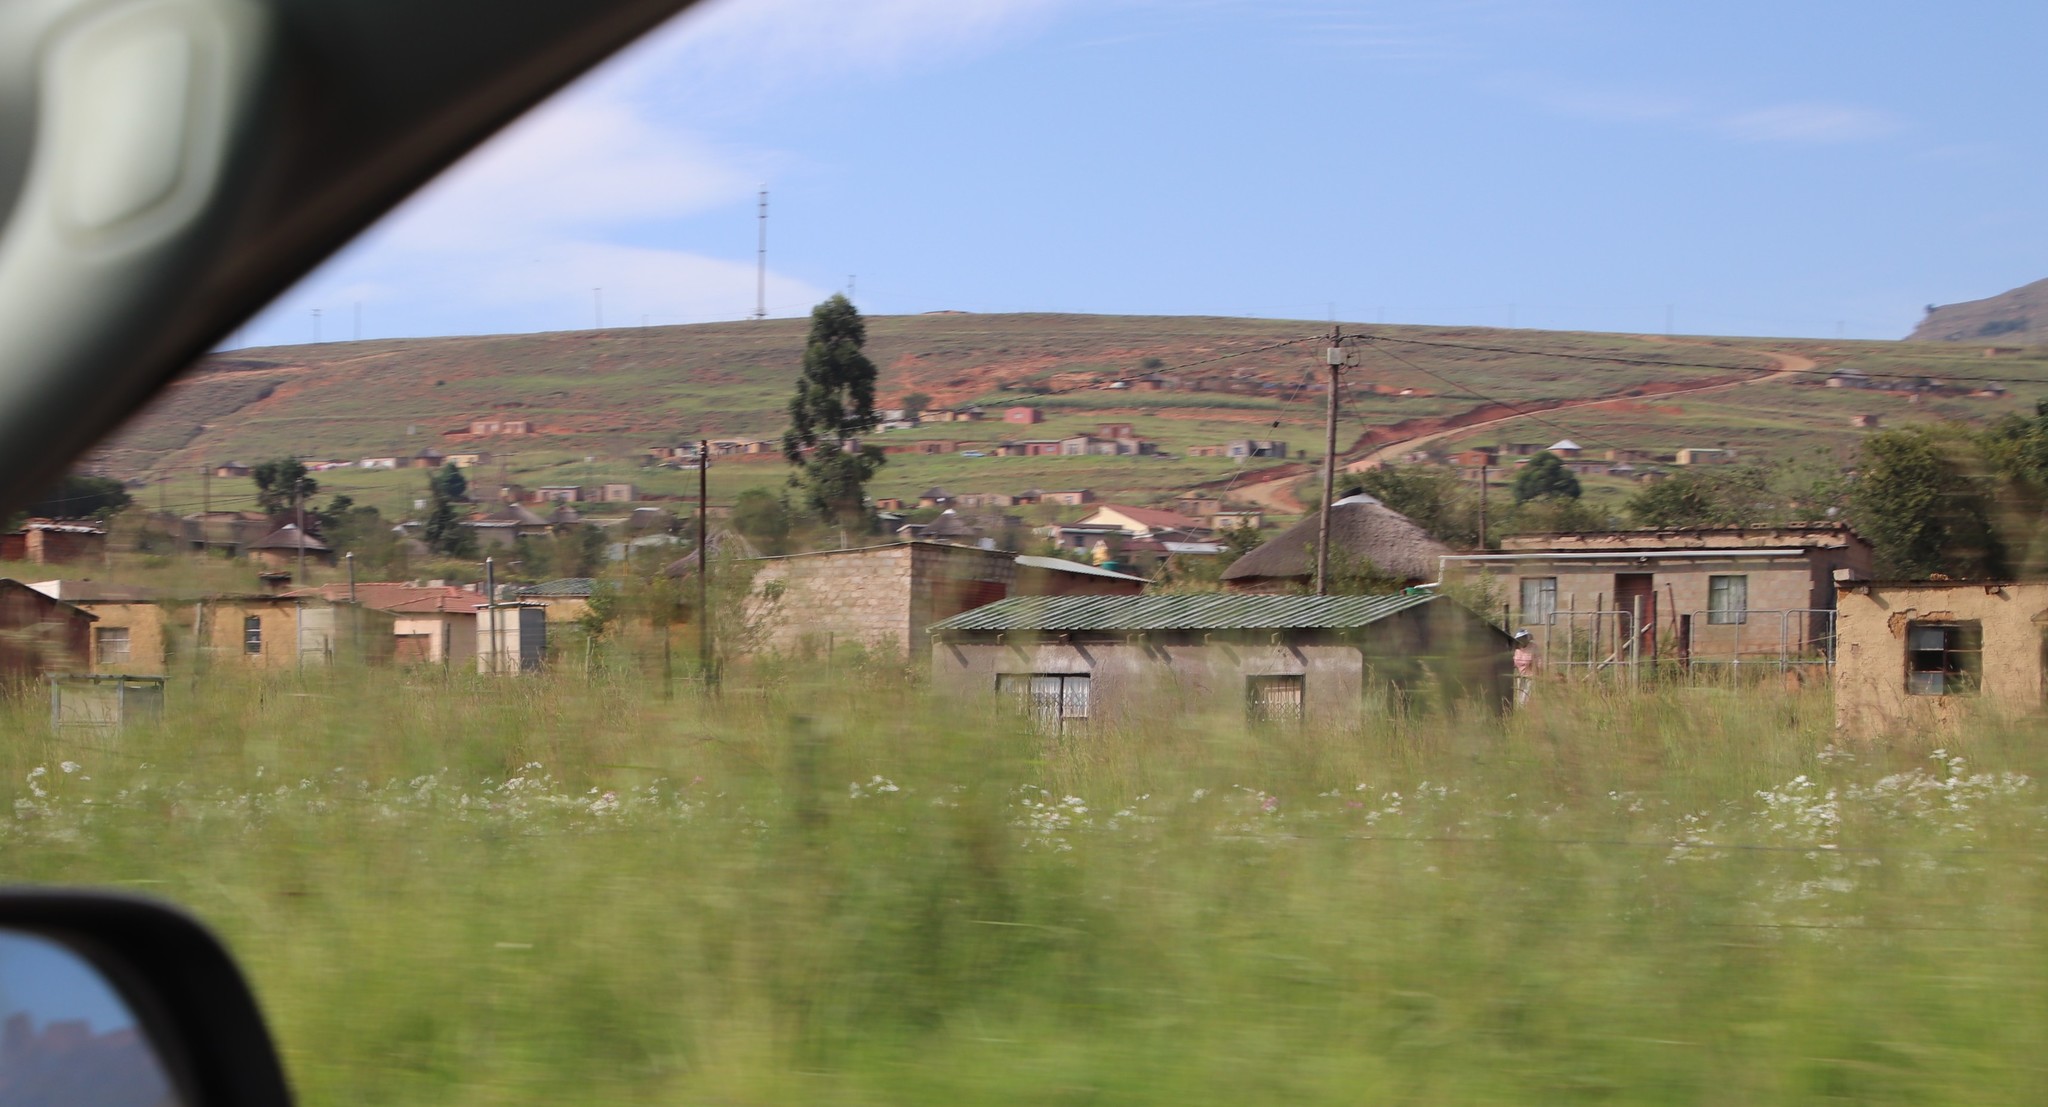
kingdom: Plantae
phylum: Tracheophyta
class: Magnoliopsida
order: Asterales
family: Asteraceae
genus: Cosmos
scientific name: Cosmos bipinnatus
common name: Garden cosmos
